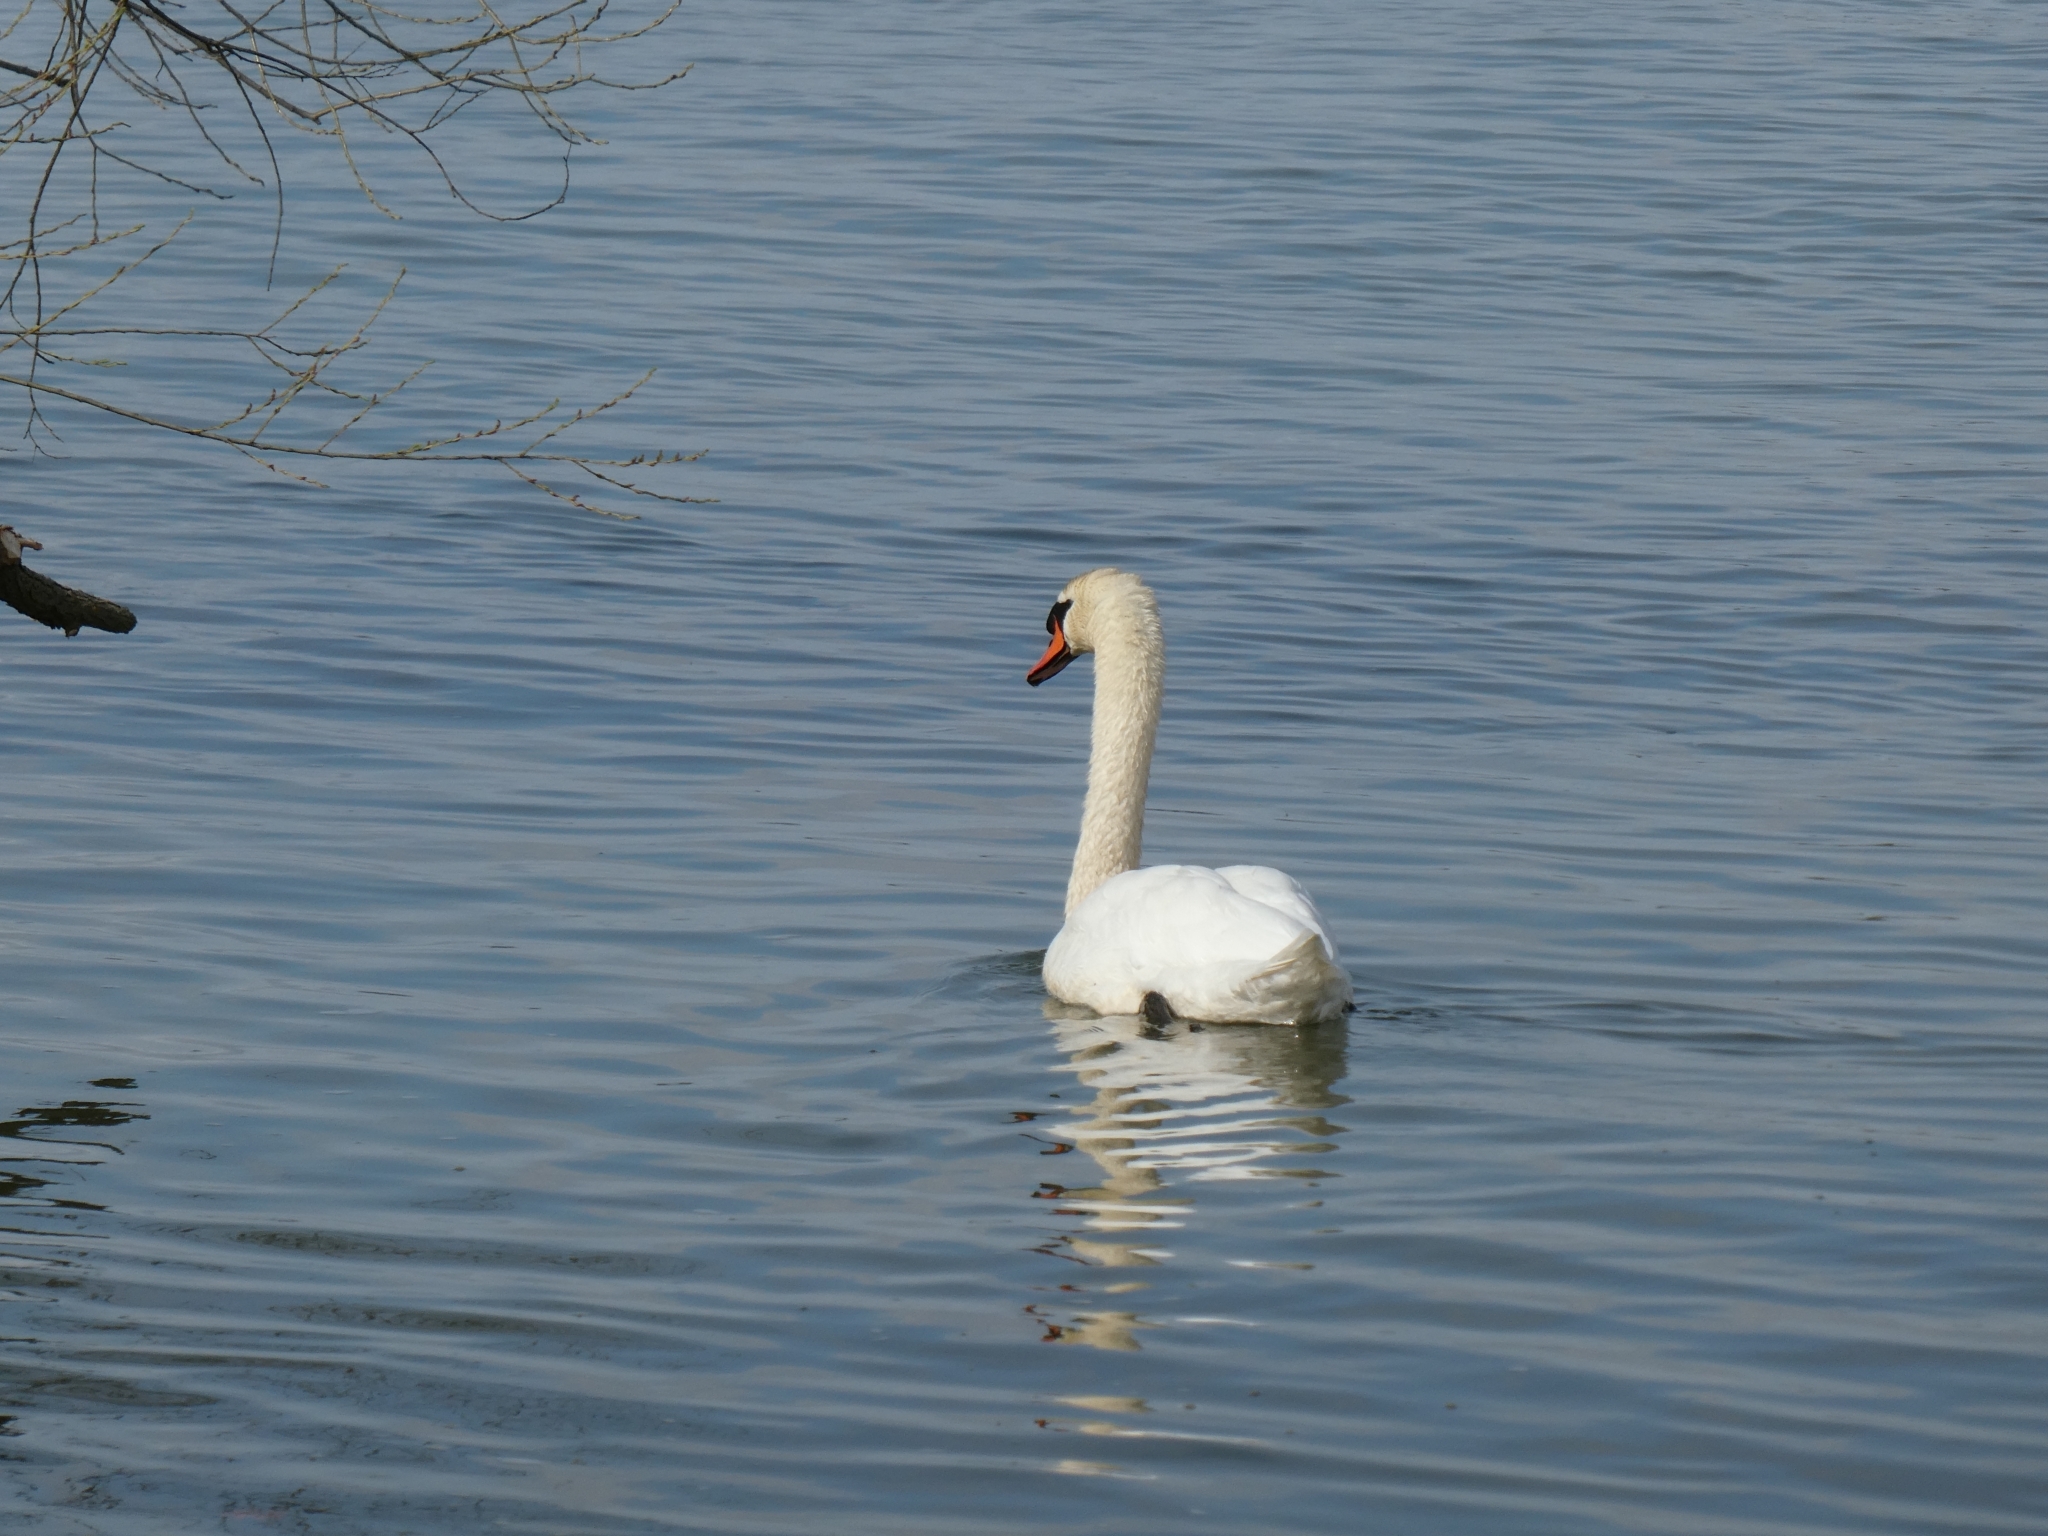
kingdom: Animalia
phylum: Chordata
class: Aves
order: Anseriformes
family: Anatidae
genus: Cygnus
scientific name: Cygnus olor
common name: Mute swan
